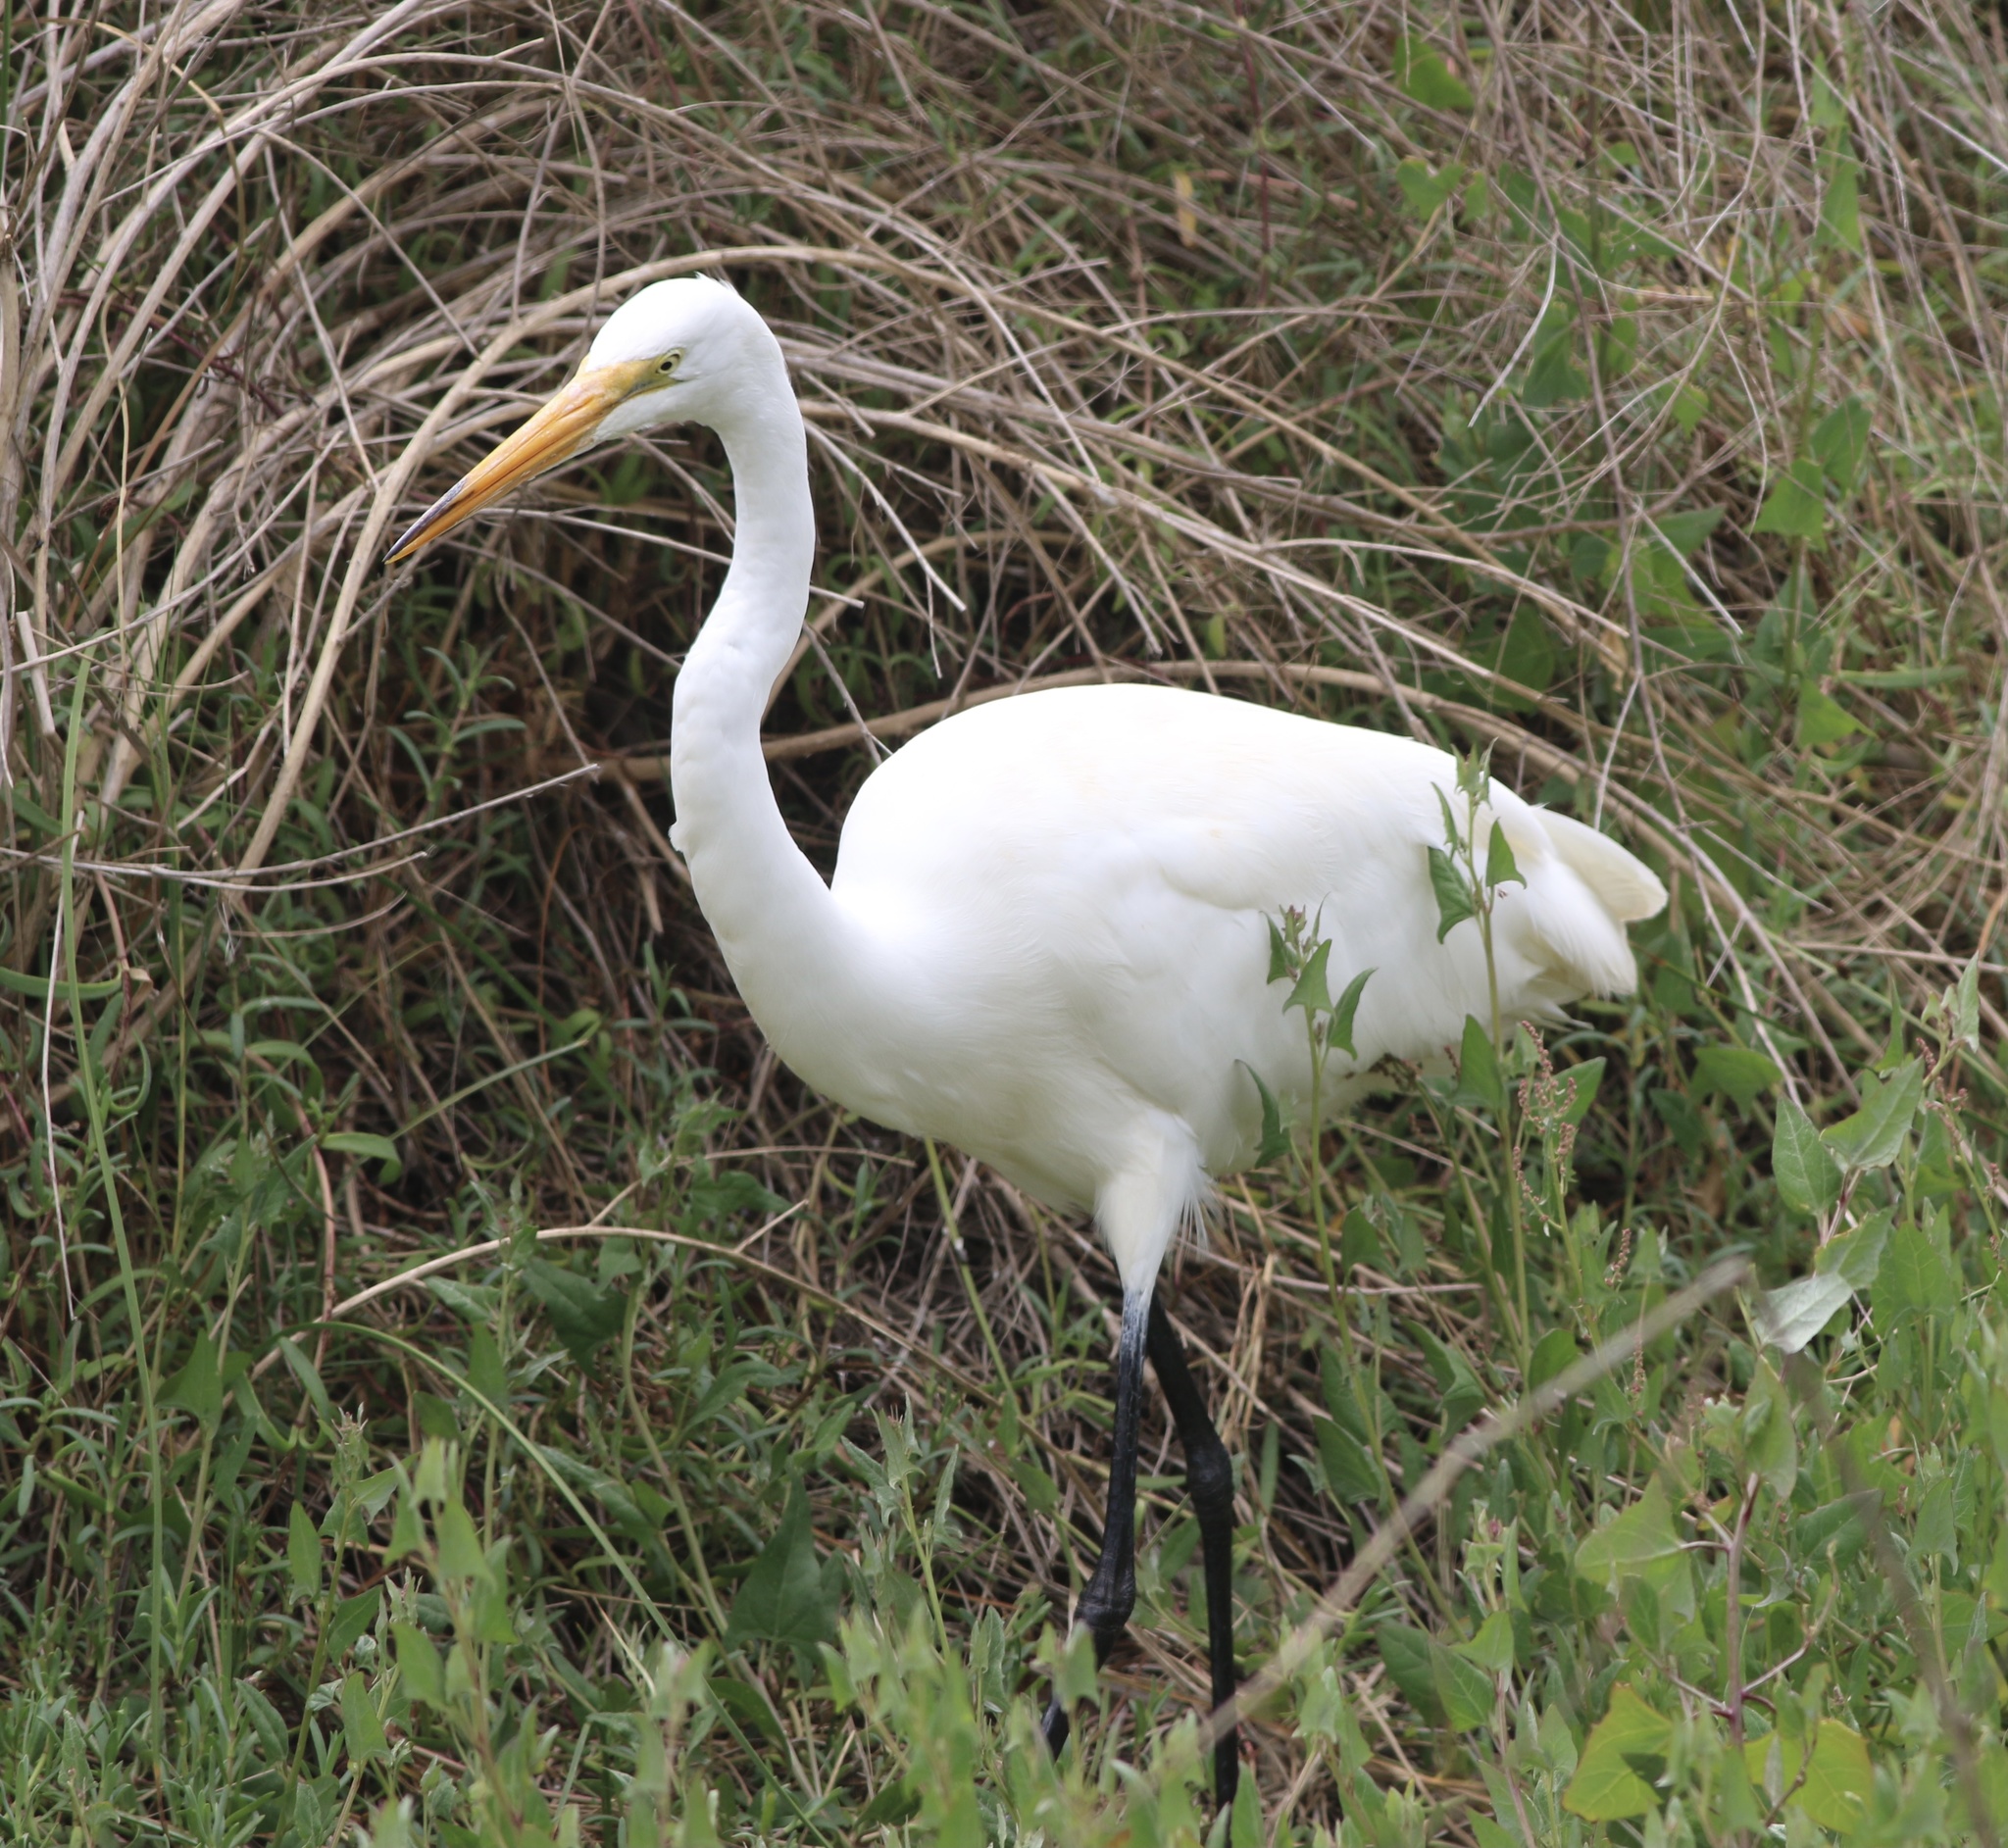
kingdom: Animalia
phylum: Chordata
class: Aves
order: Pelecaniformes
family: Ardeidae
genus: Ardea
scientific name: Ardea alba
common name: Great egret
